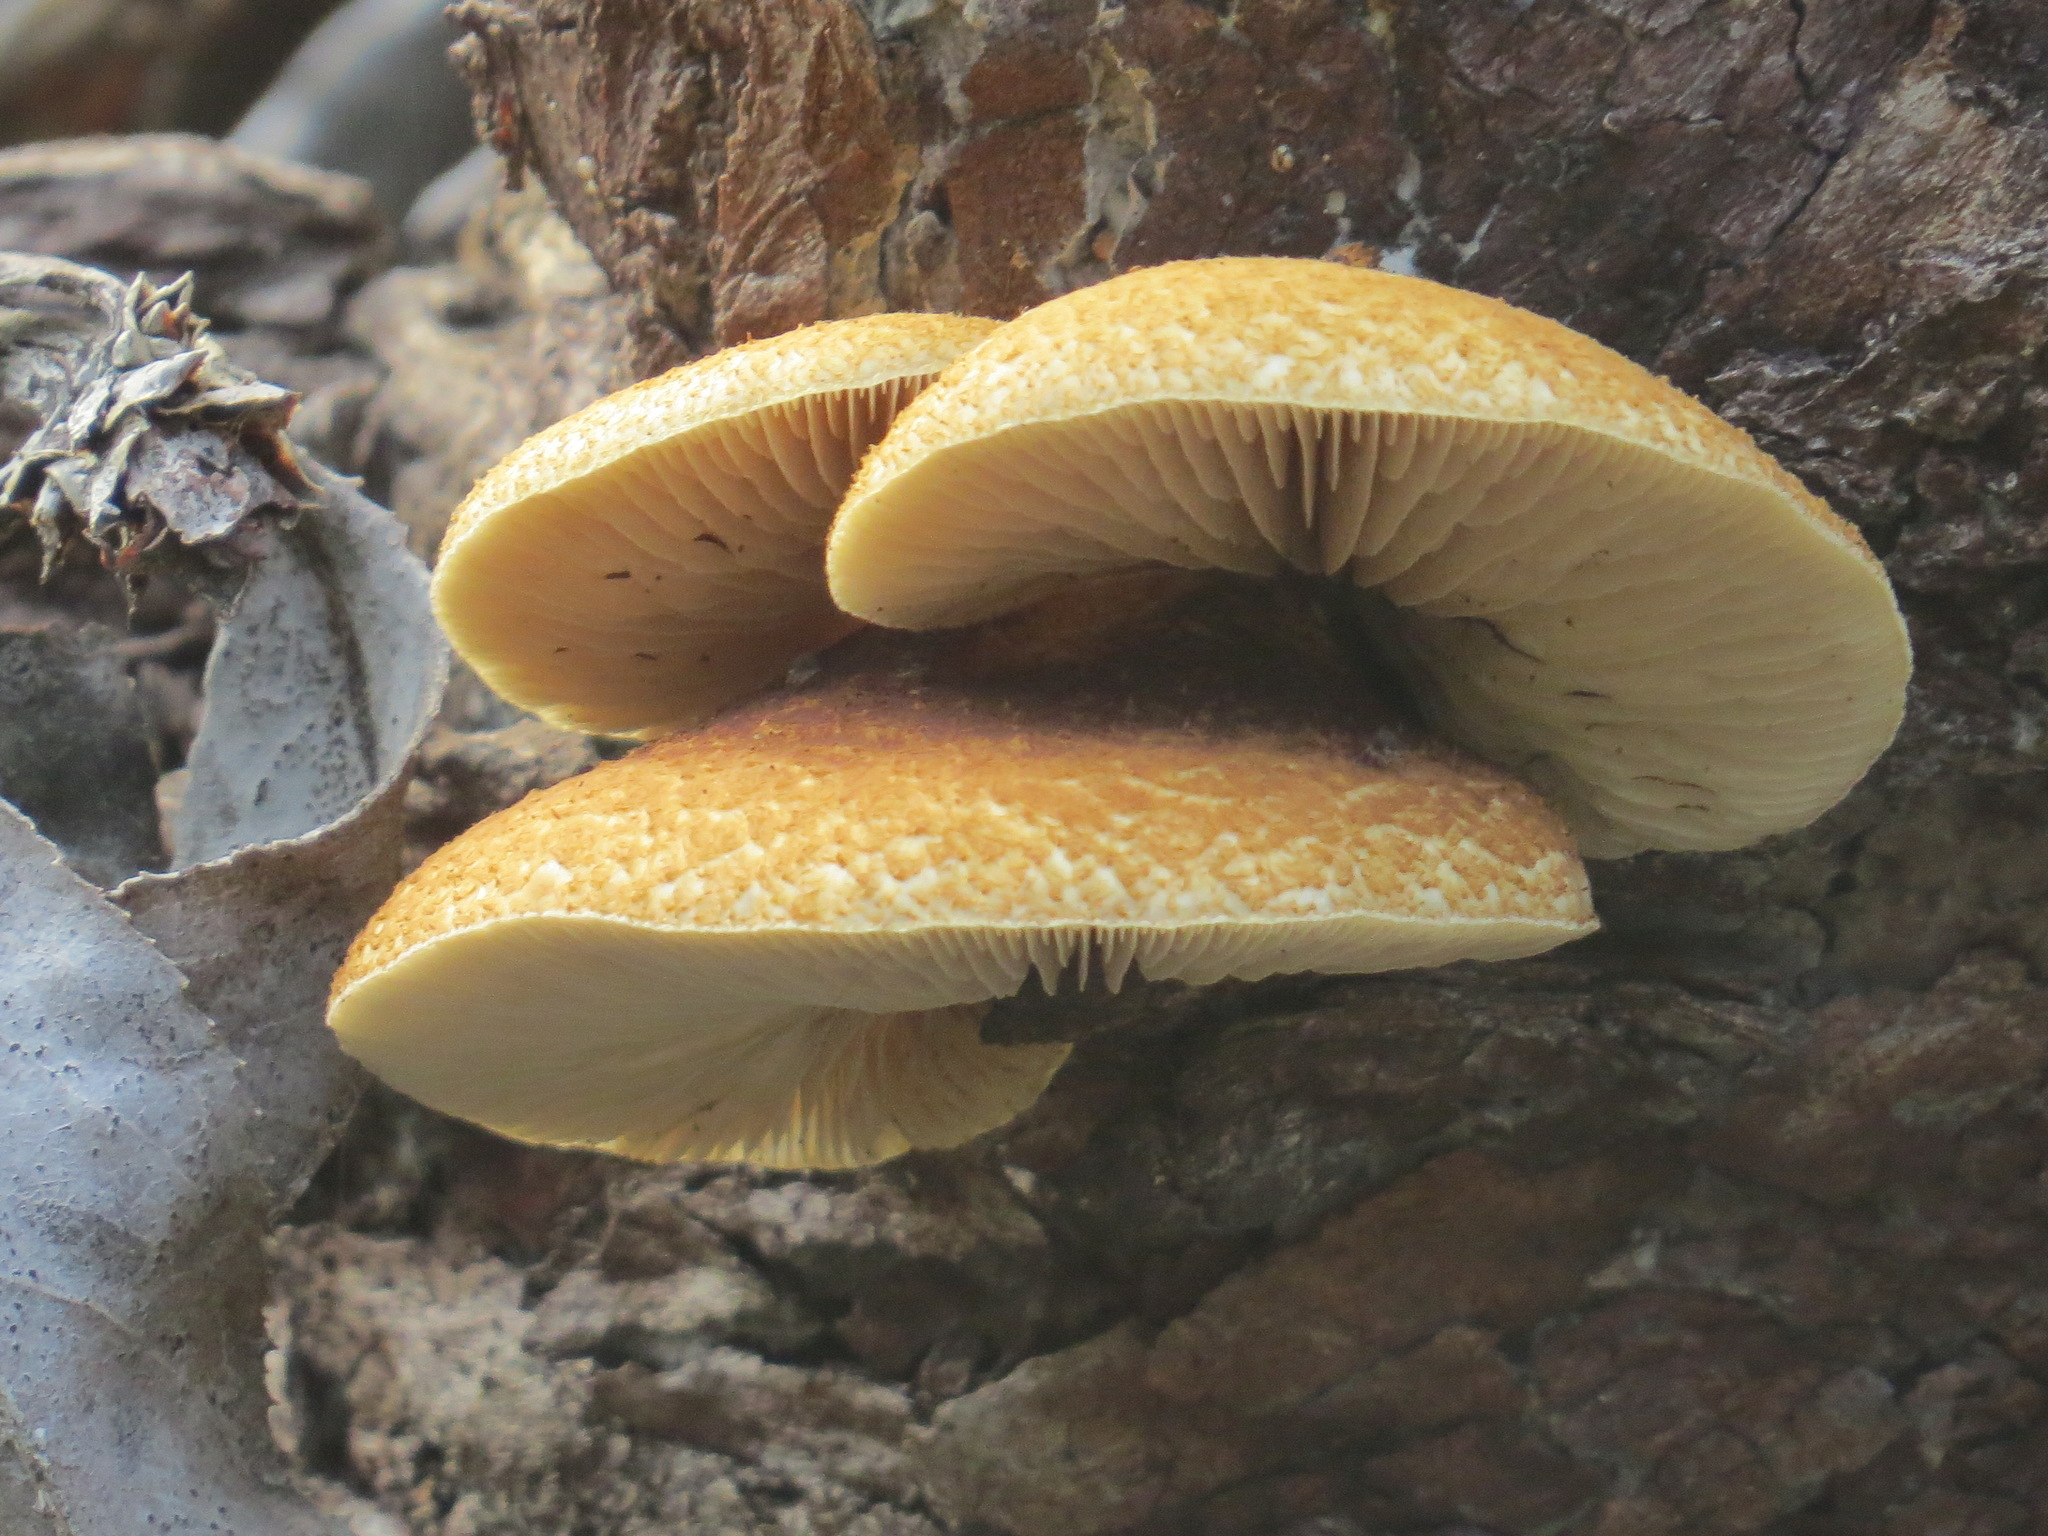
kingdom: Fungi
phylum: Basidiomycota
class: Agaricomycetes
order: Agaricales
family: Crepidotaceae
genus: Crepidotus
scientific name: Crepidotus mollis
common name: Peeling oysterling
